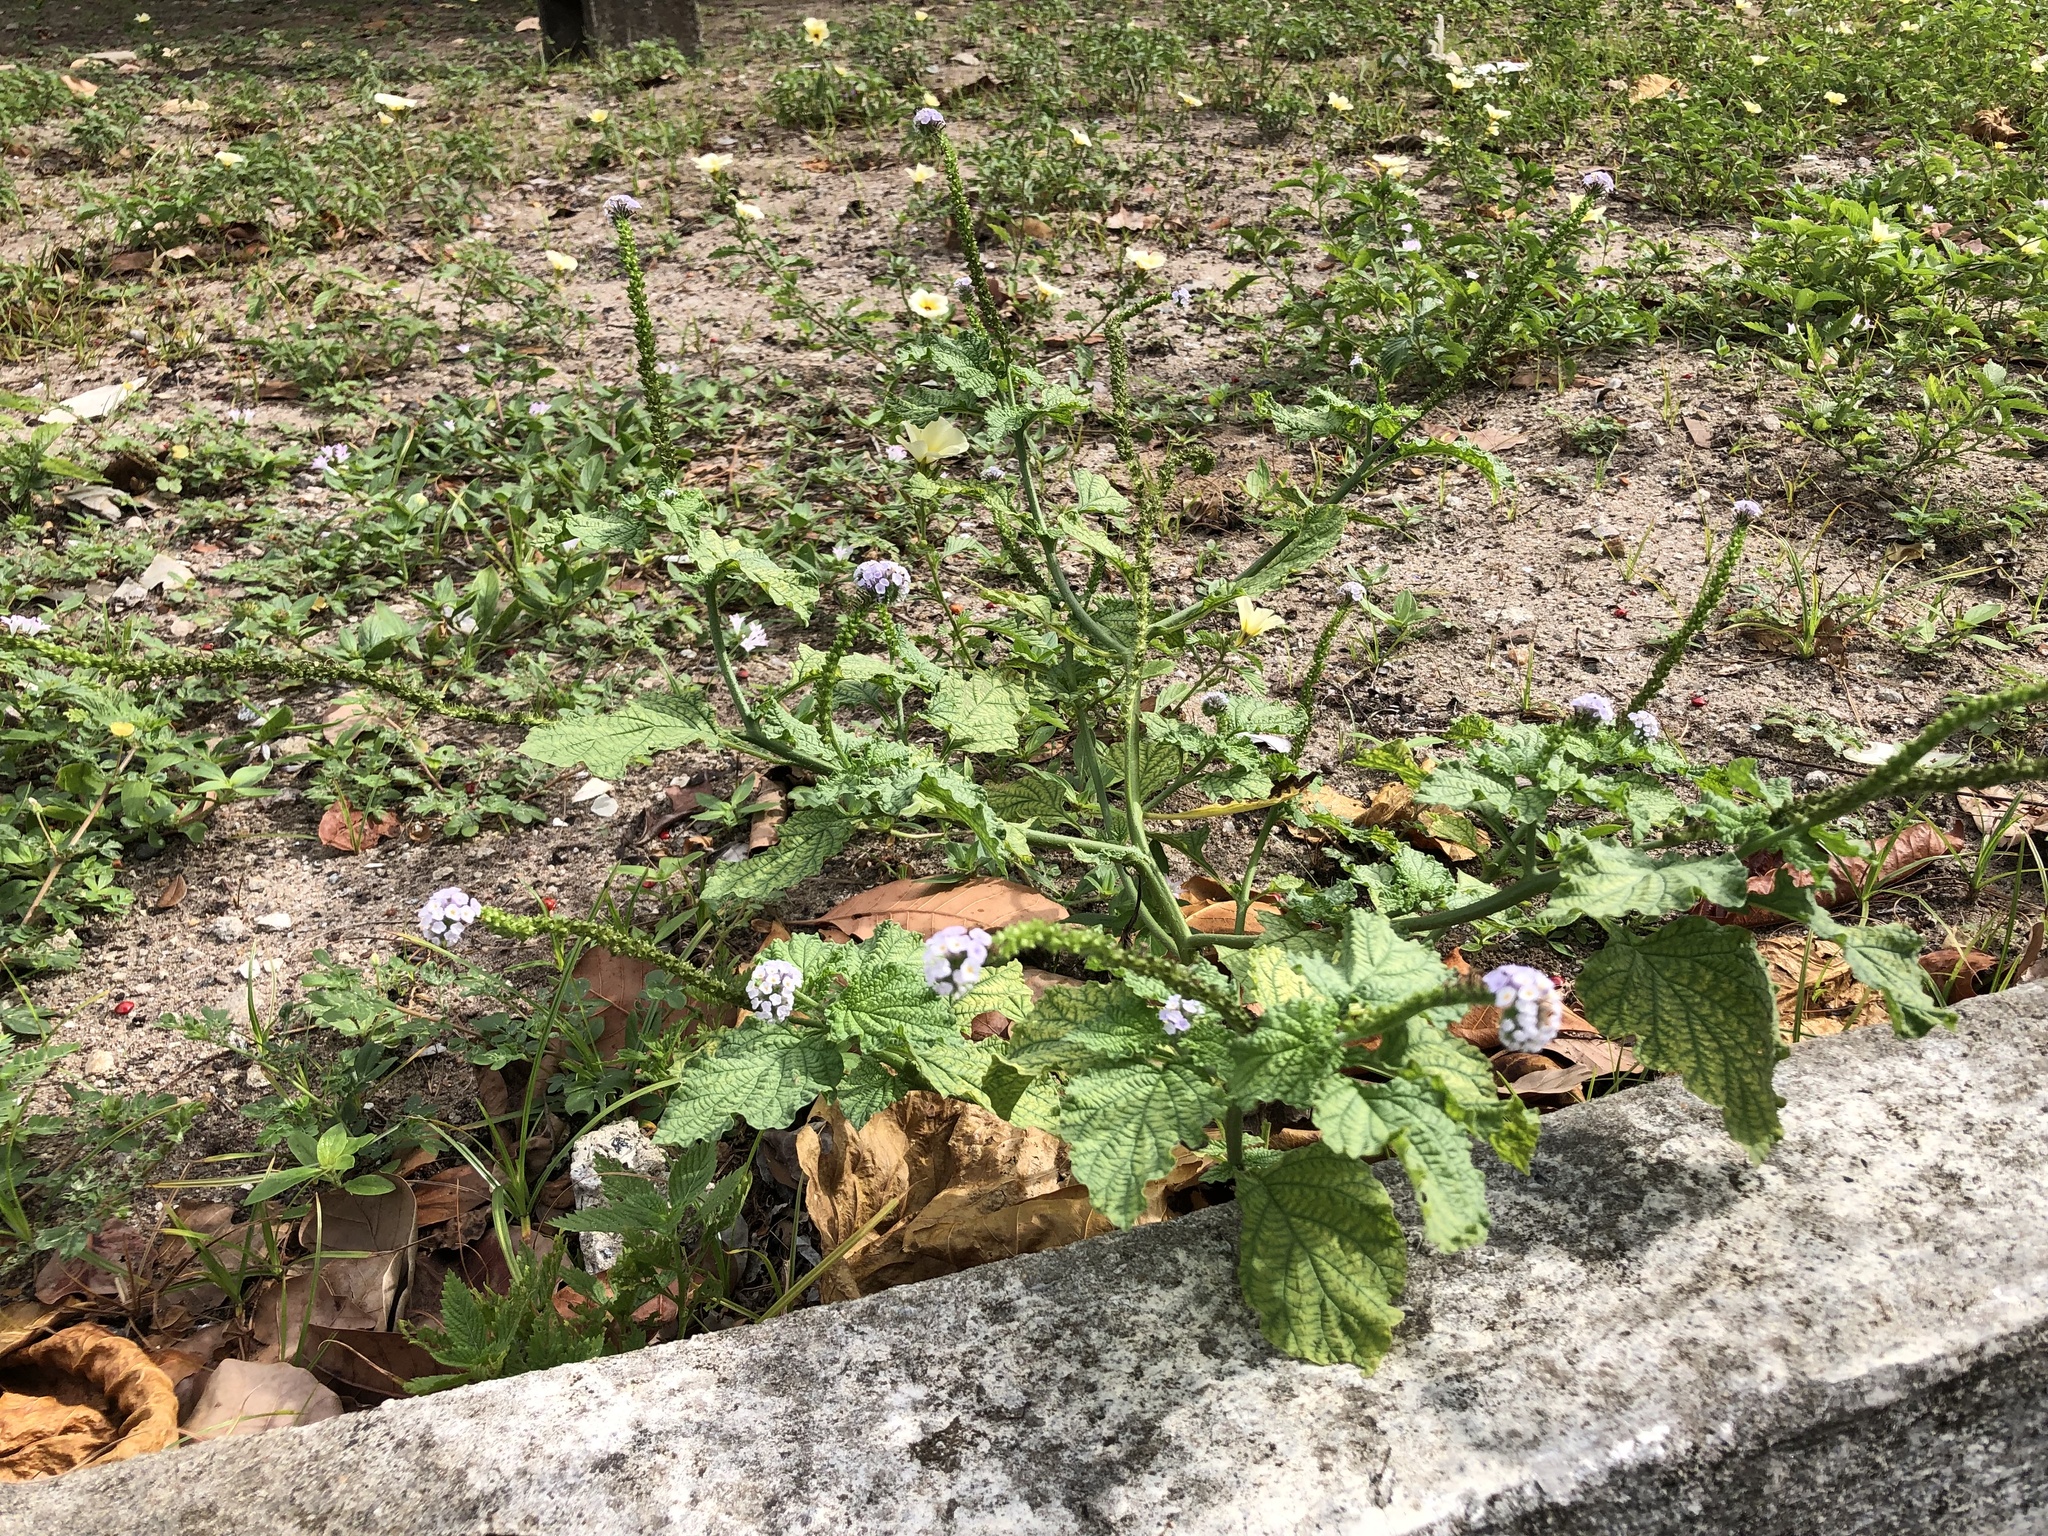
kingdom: Plantae
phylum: Tracheophyta
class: Magnoliopsida
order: Boraginales
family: Heliotropiaceae
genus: Heliotropium
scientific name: Heliotropium elongatum
